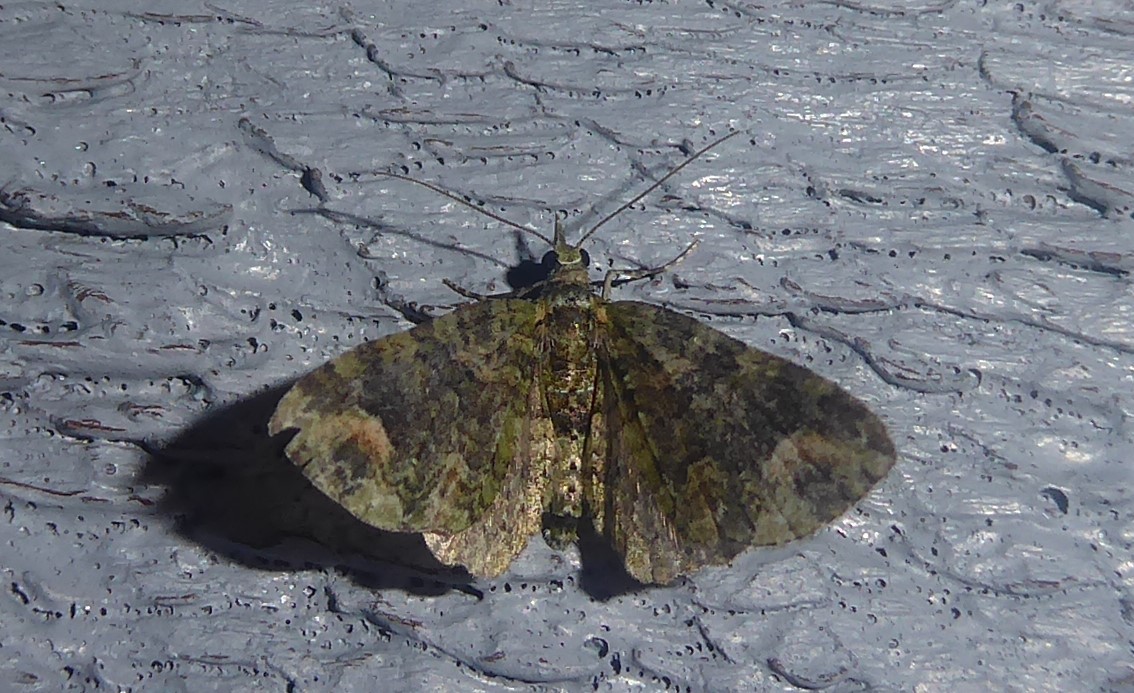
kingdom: Animalia
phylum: Arthropoda
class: Insecta
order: Lepidoptera
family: Geometridae
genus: Idaea
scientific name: Idaea mutanda
